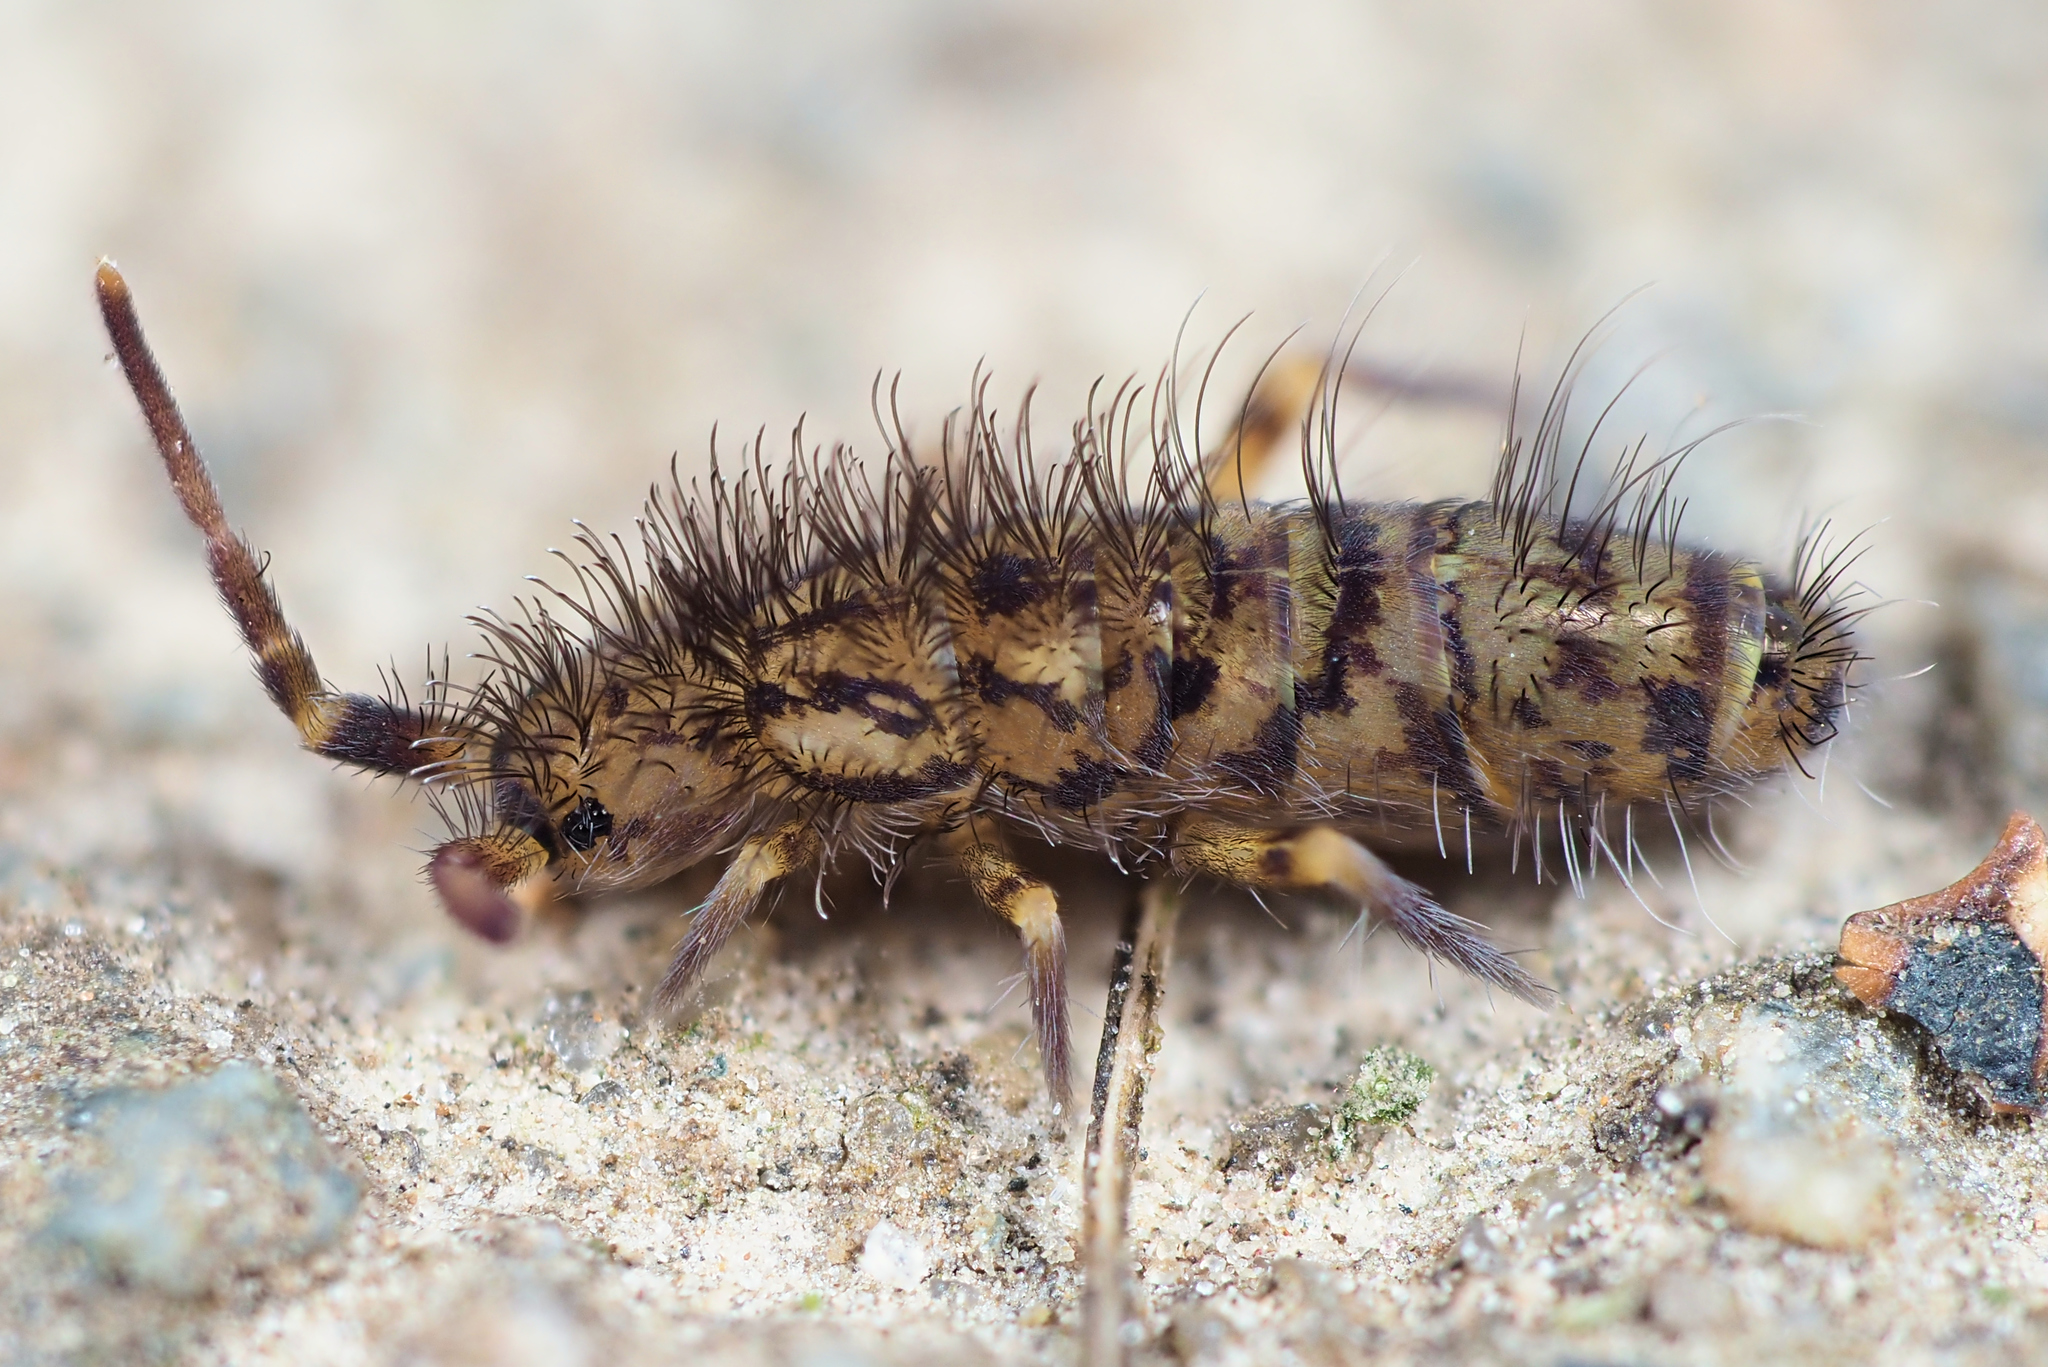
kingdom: Animalia
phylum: Arthropoda
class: Collembola
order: Entomobryomorpha
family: Orchesellidae
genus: Orchesella
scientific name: Orchesella villosa
